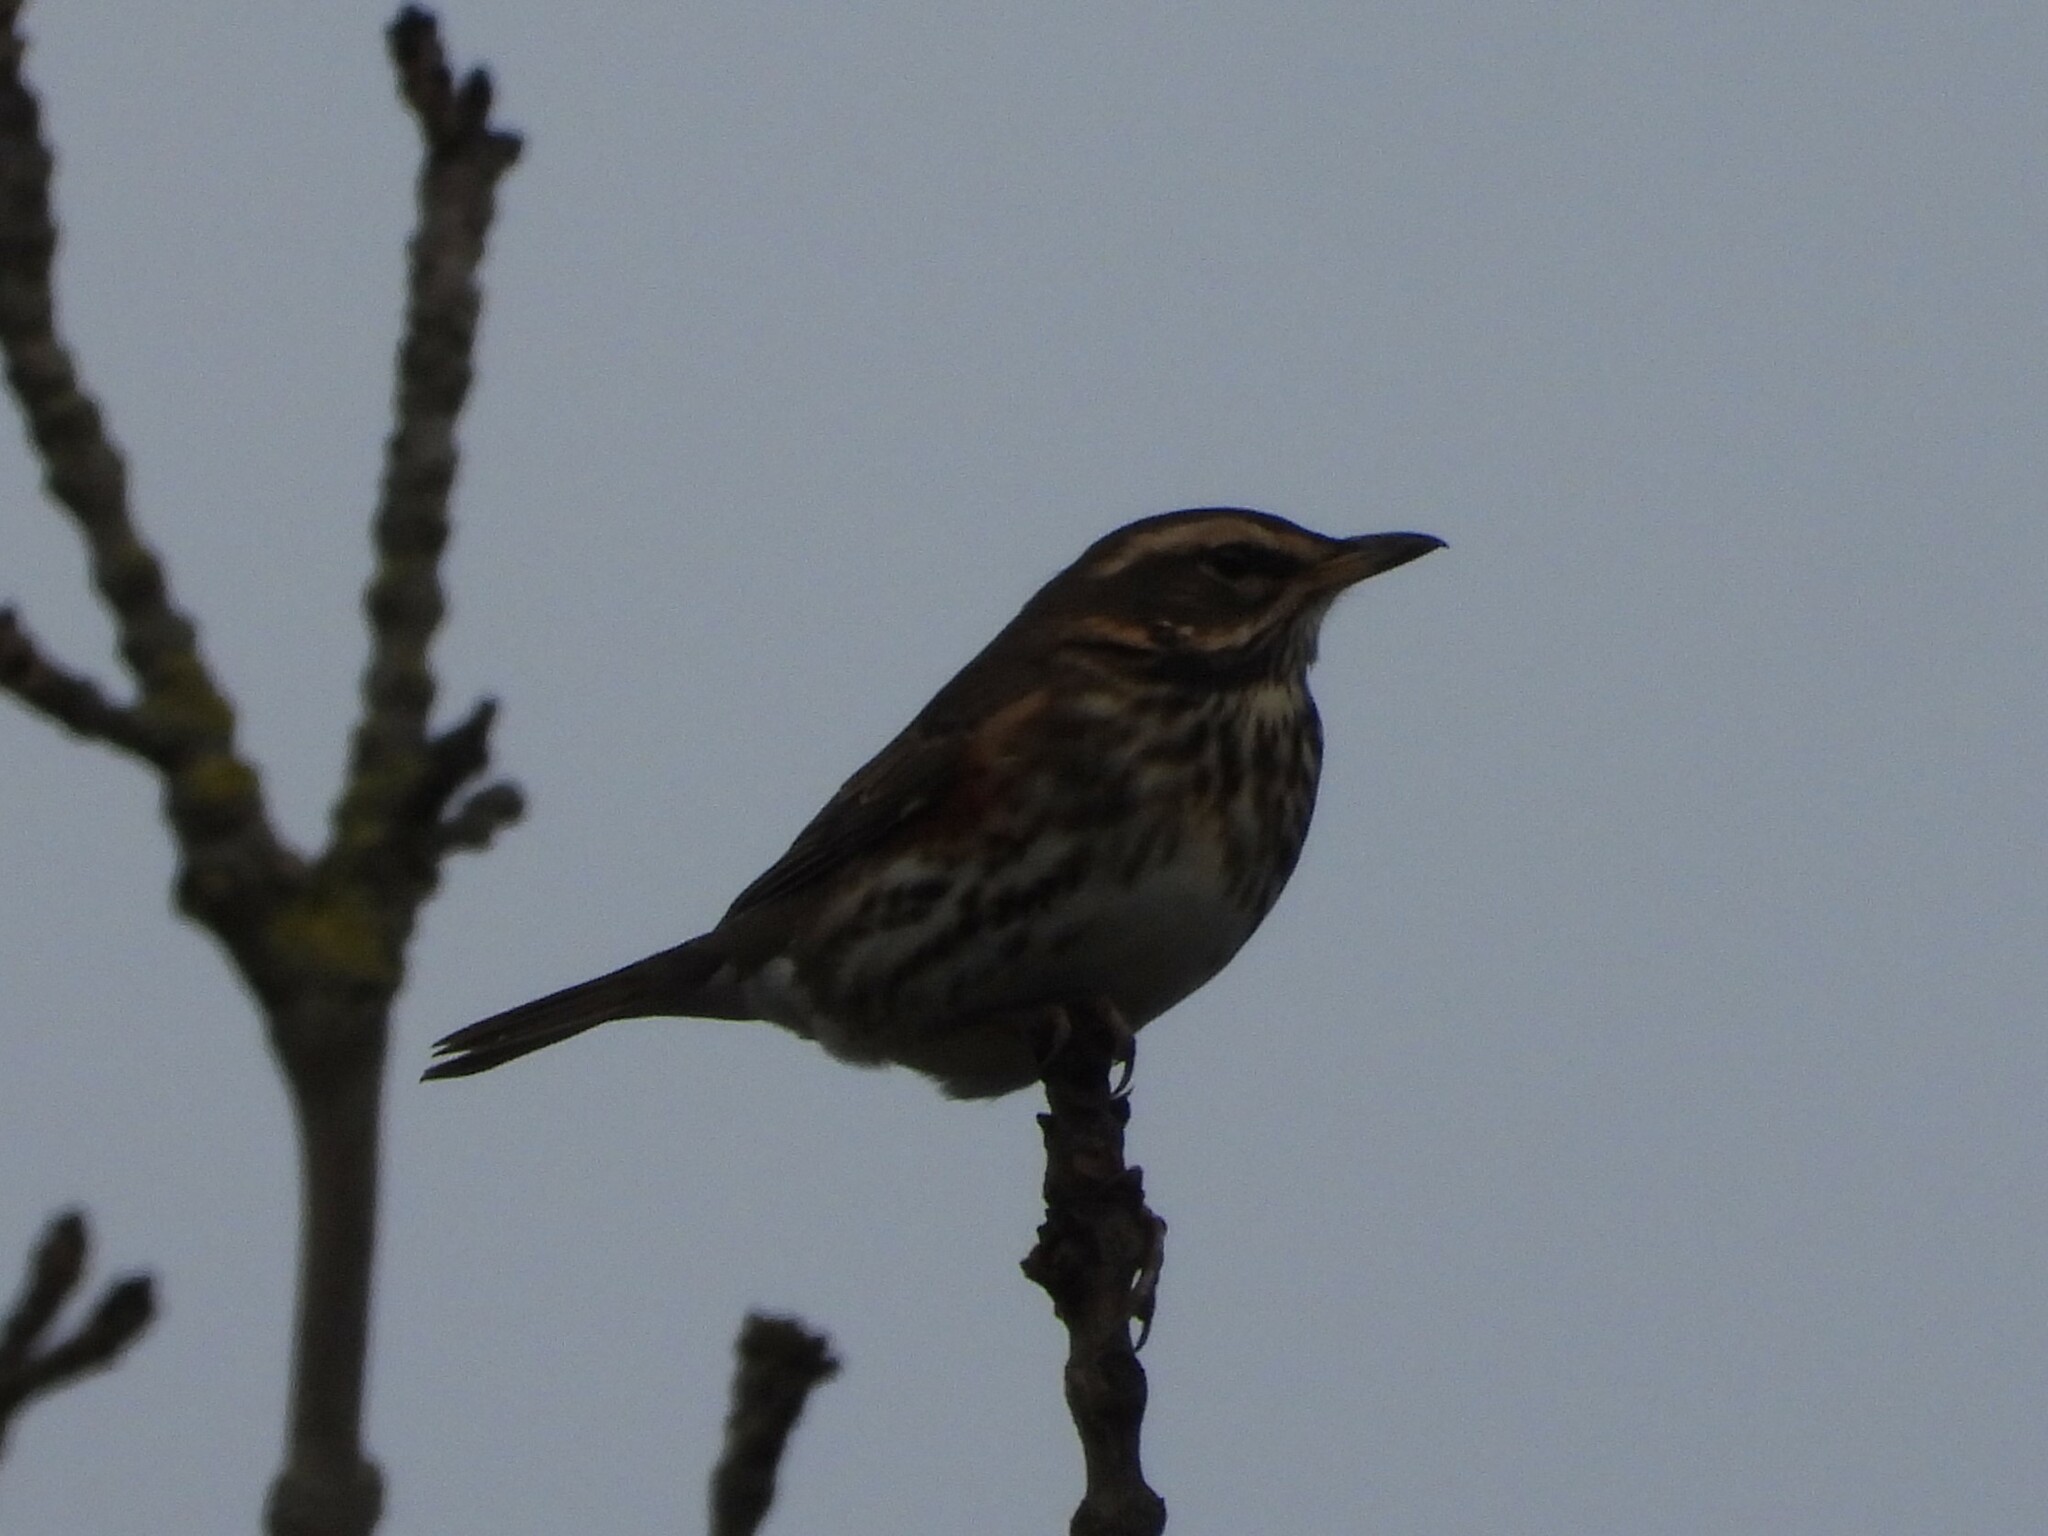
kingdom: Animalia
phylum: Chordata
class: Aves
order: Passeriformes
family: Turdidae
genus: Turdus
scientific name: Turdus iliacus
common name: Redwing
